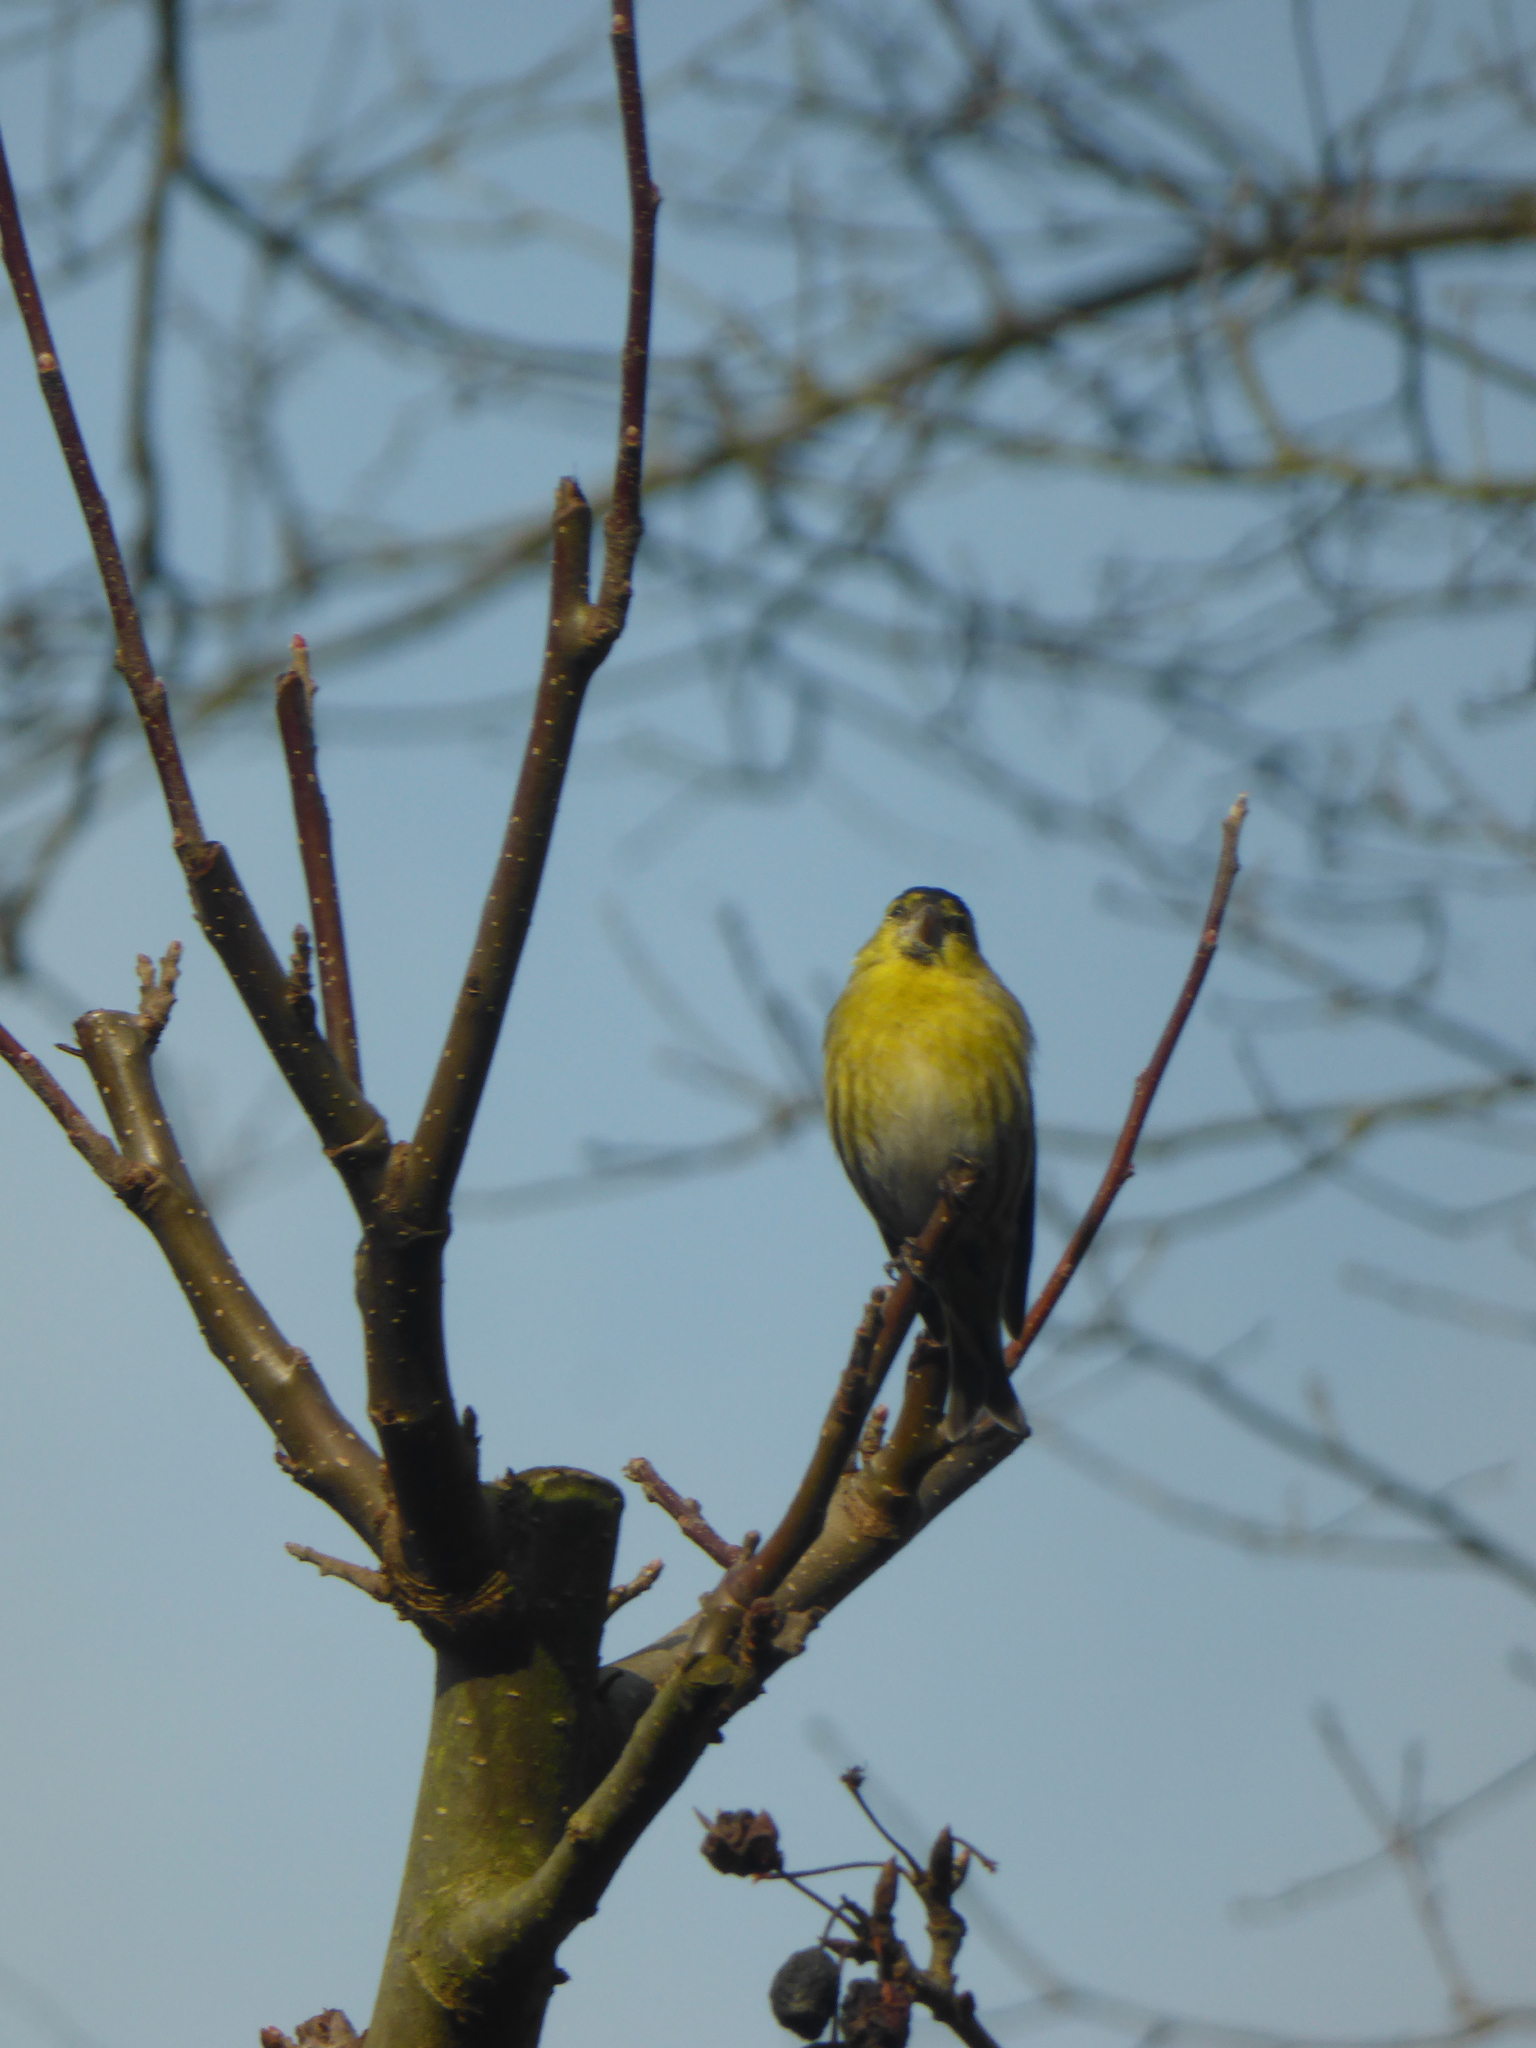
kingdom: Animalia
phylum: Chordata
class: Aves
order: Passeriformes
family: Fringillidae
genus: Spinus
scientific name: Spinus spinus
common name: Eurasian siskin
